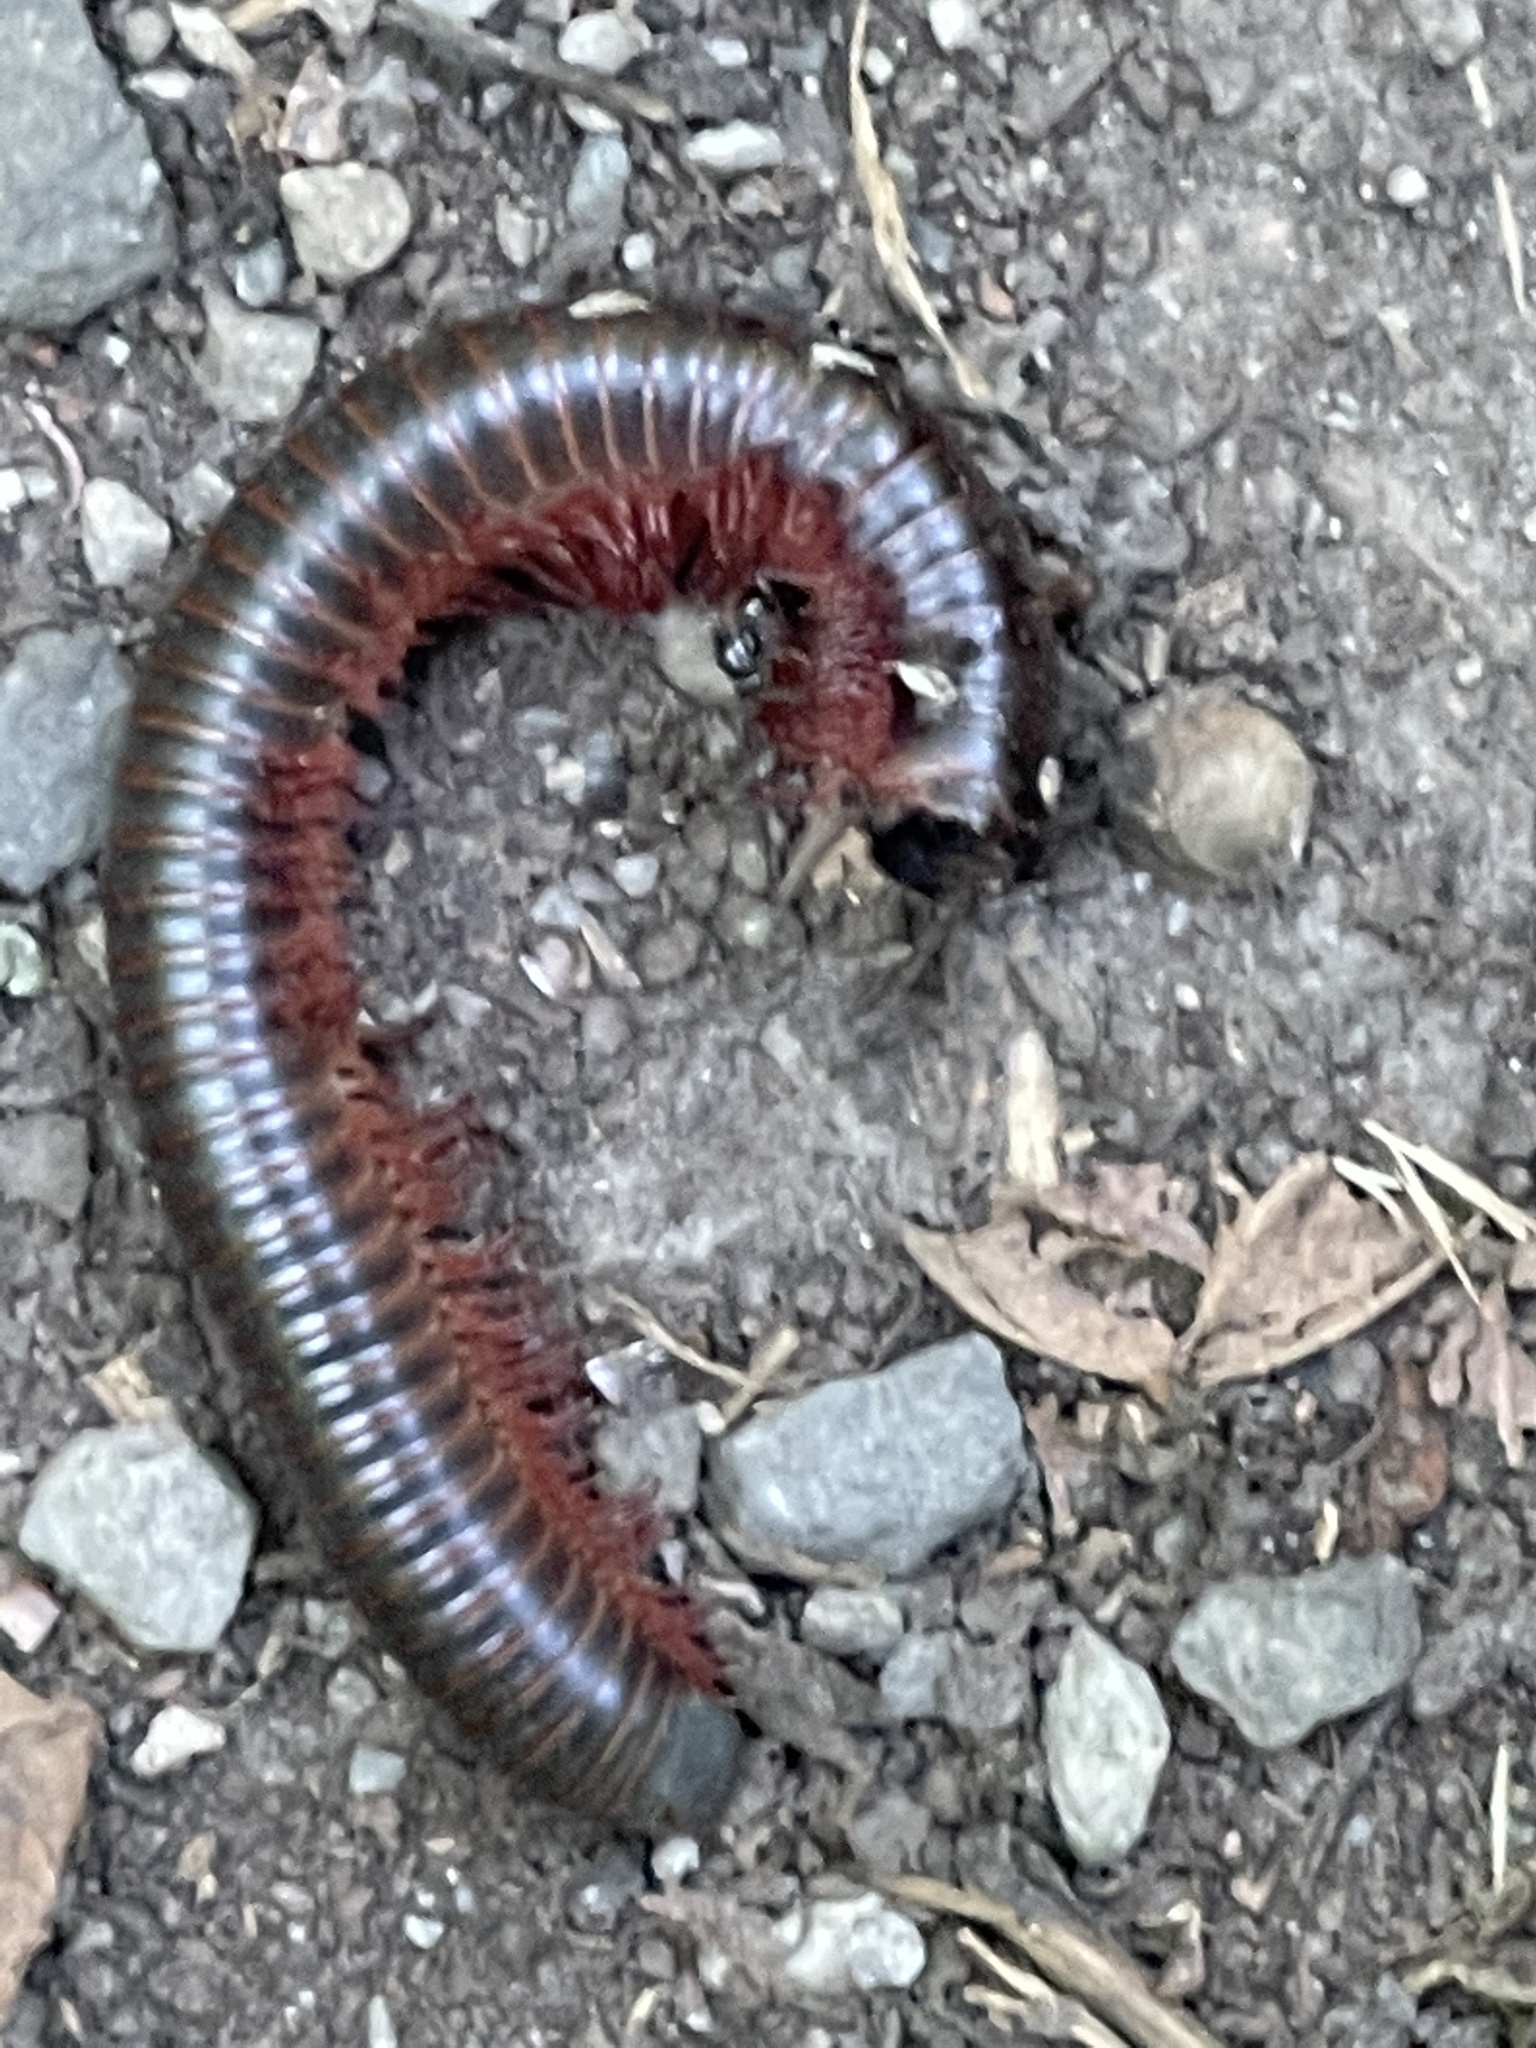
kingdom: Animalia
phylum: Arthropoda
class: Diplopoda
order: Spirobolida
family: Spirobolidae
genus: Narceus
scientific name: Narceus
